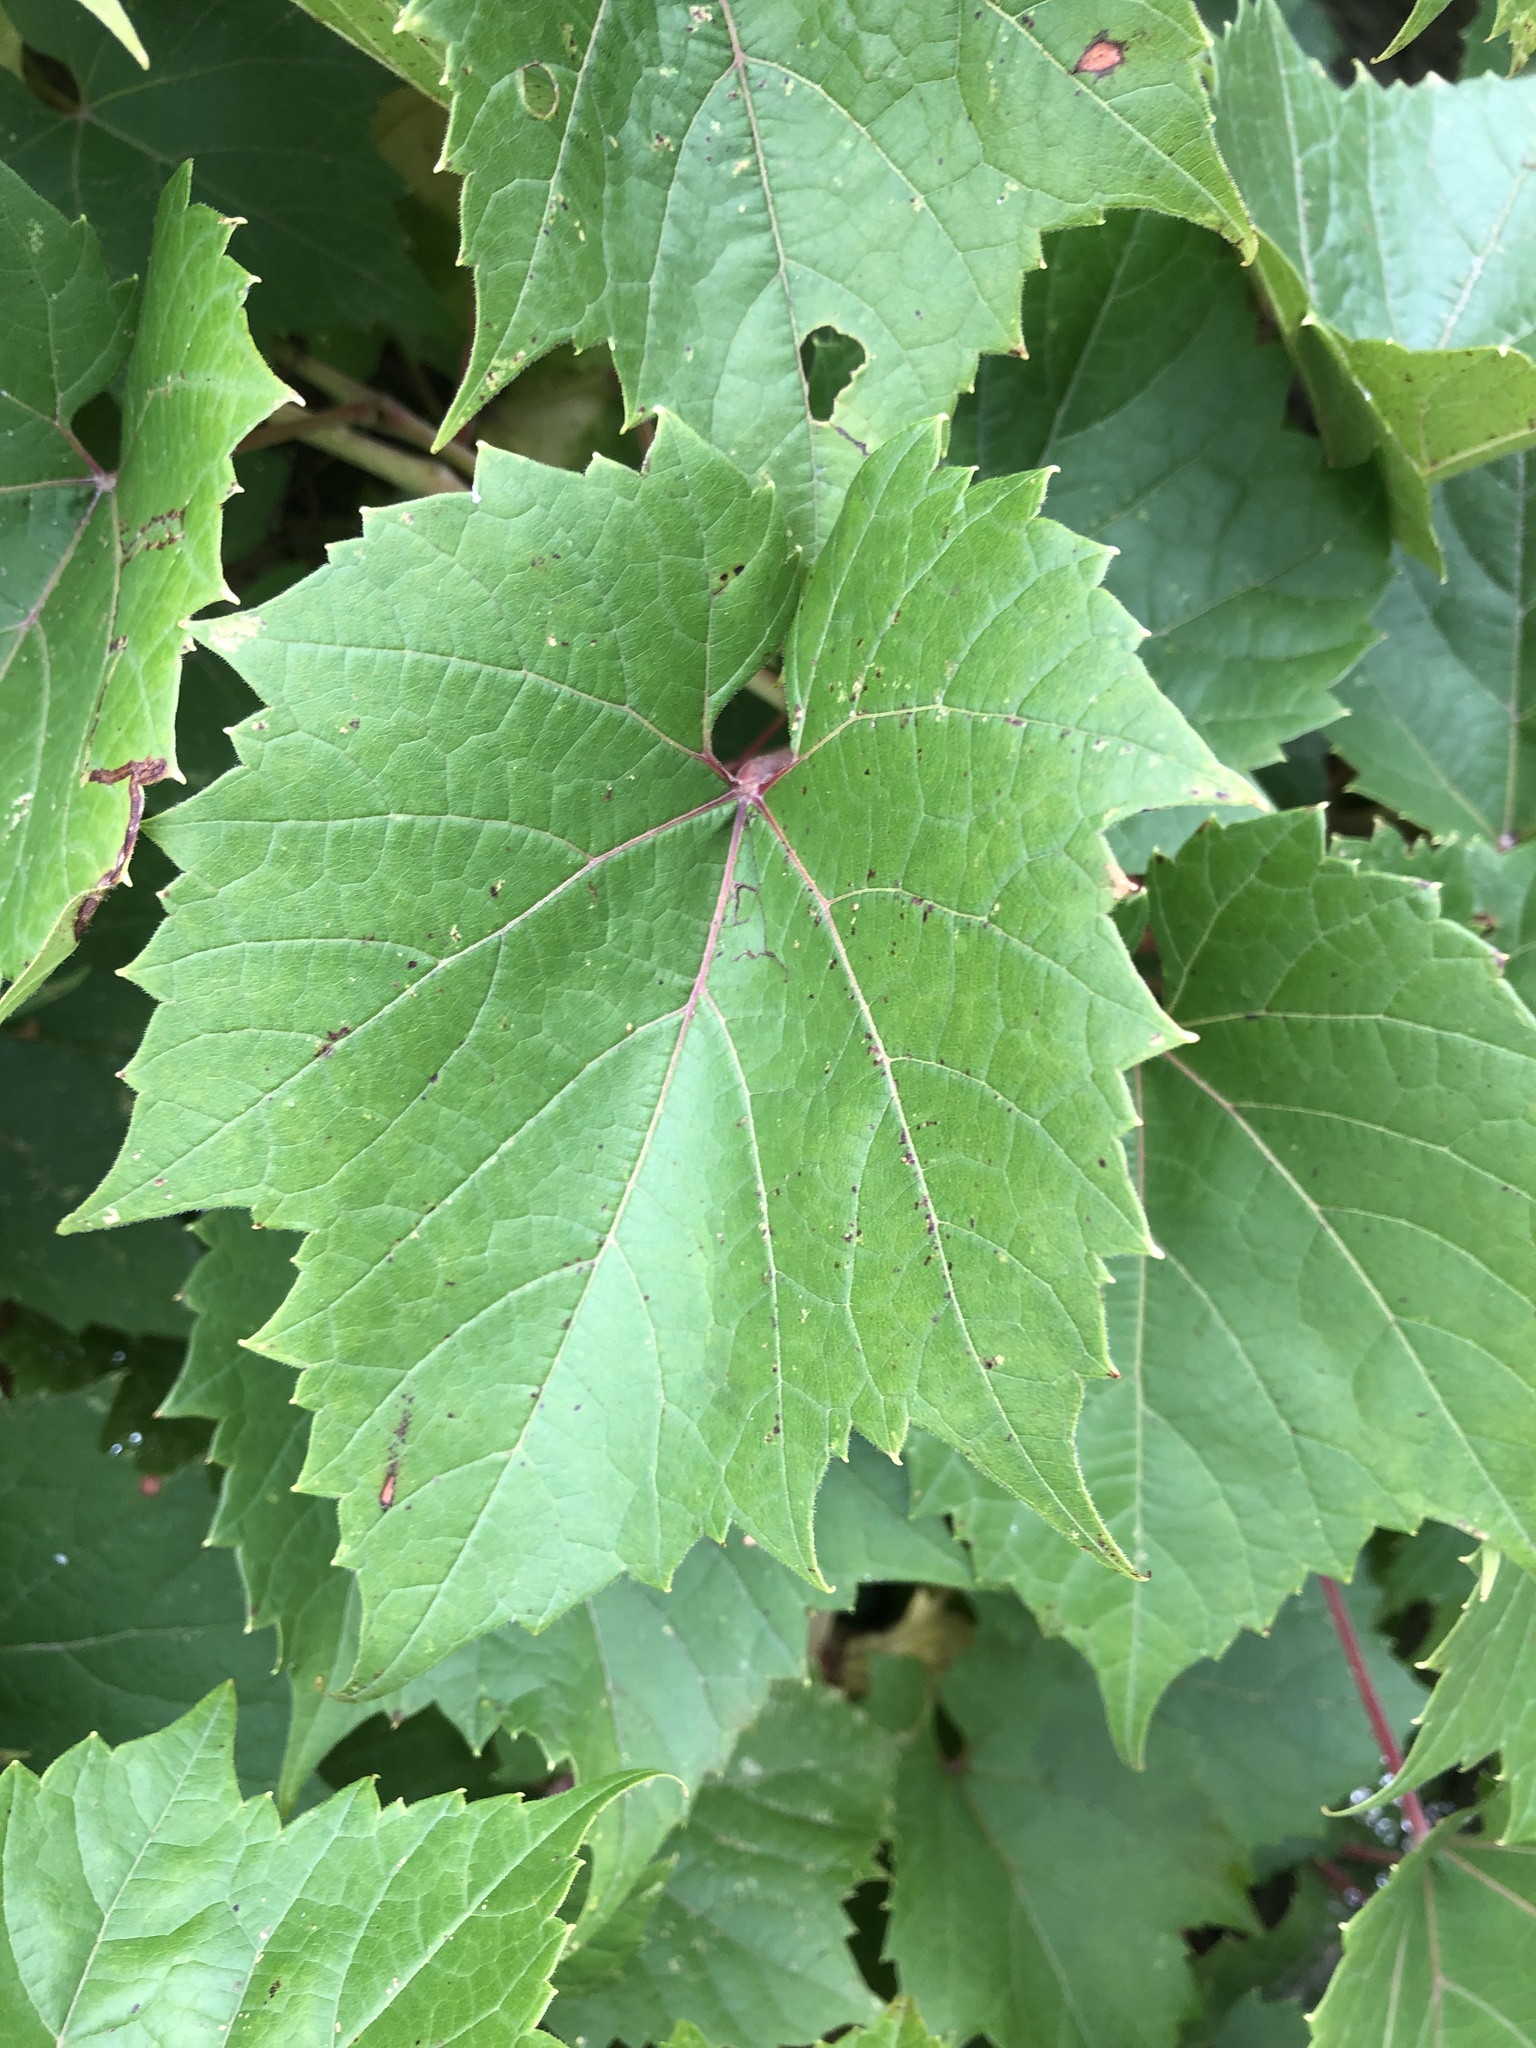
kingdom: Plantae
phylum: Tracheophyta
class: Magnoliopsida
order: Vitales
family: Vitaceae
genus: Vitis
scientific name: Vitis riparia
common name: Frost grape
